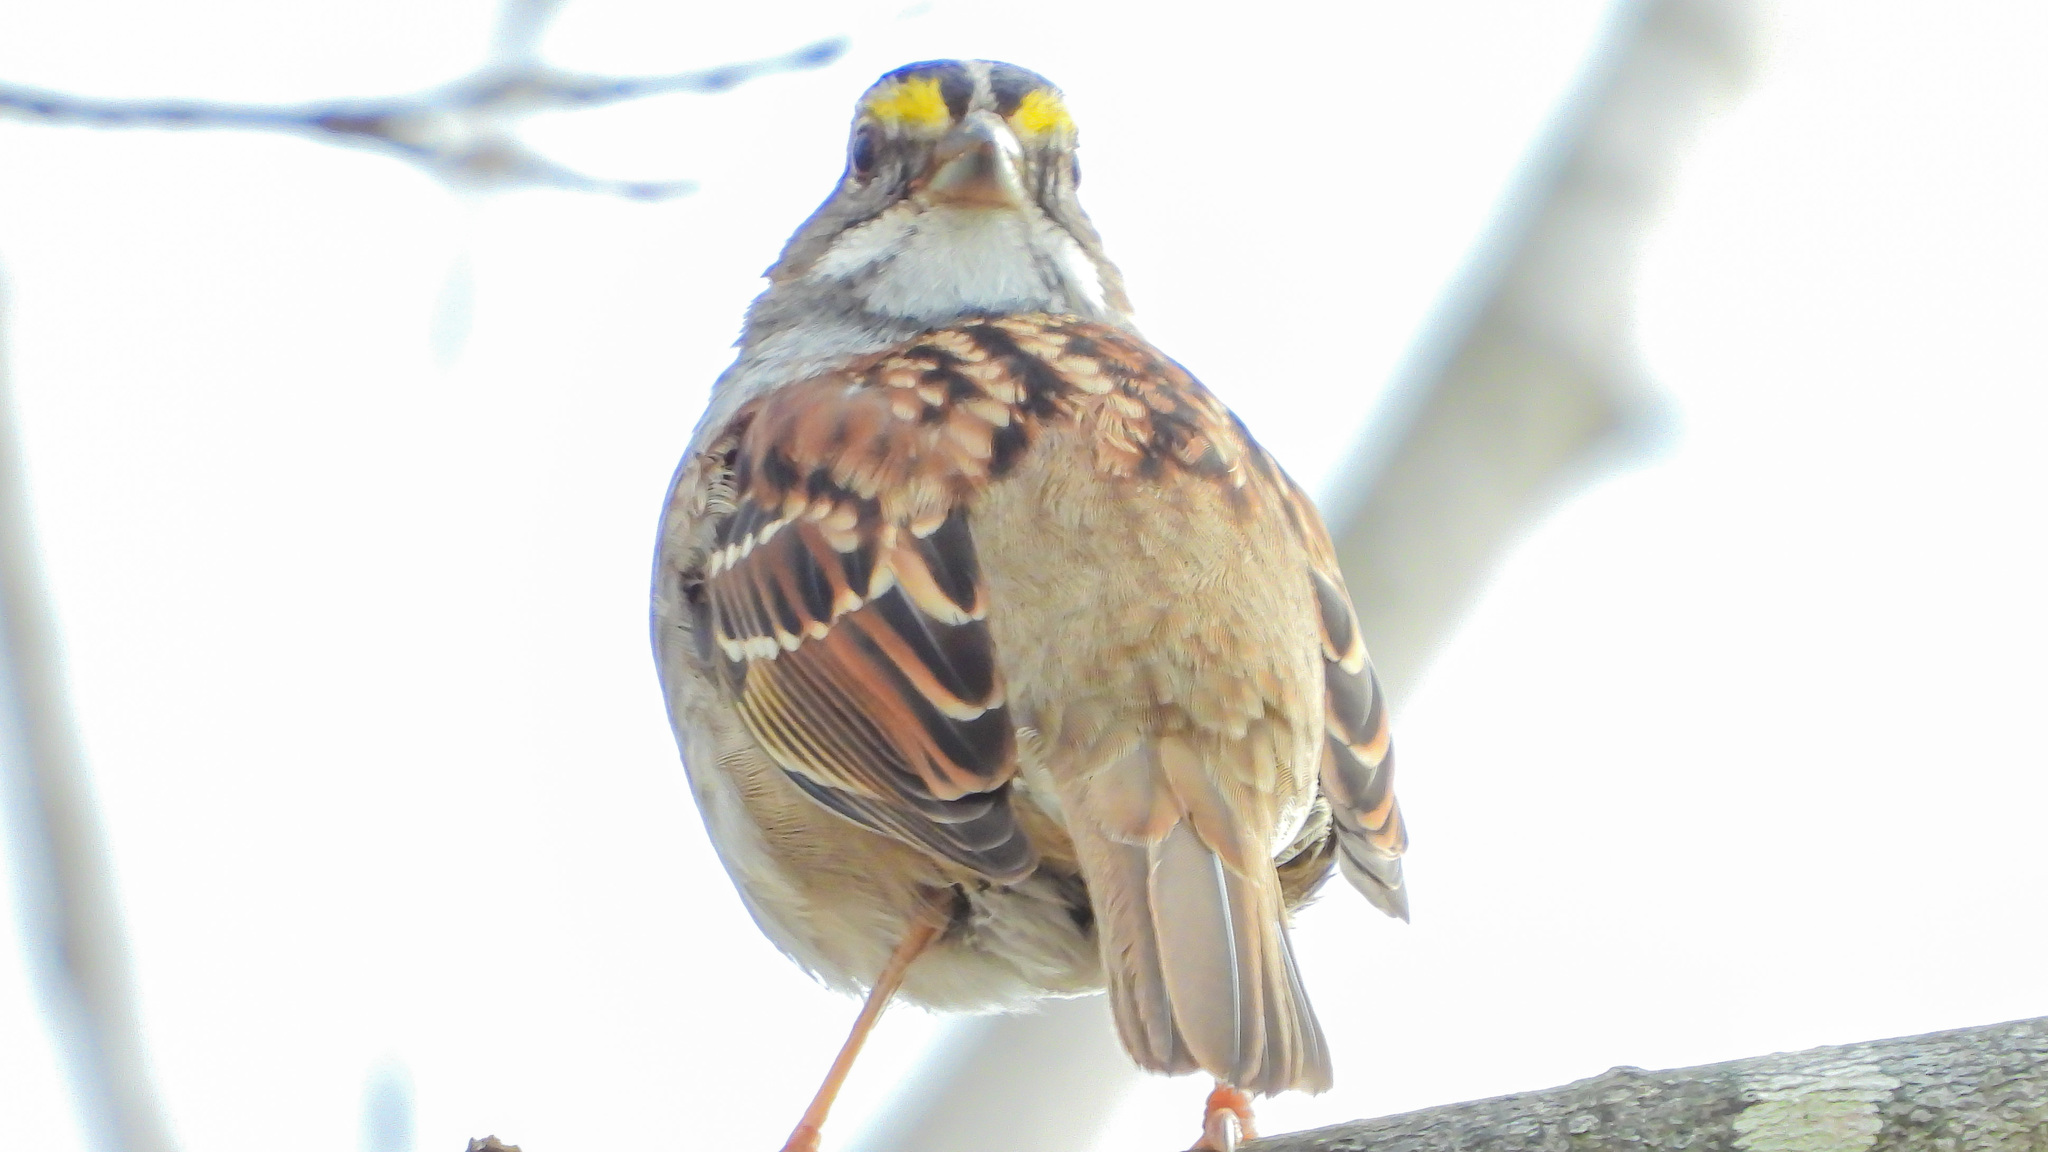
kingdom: Animalia
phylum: Chordata
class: Aves
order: Passeriformes
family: Passerellidae
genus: Zonotrichia
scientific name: Zonotrichia albicollis
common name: White-throated sparrow
